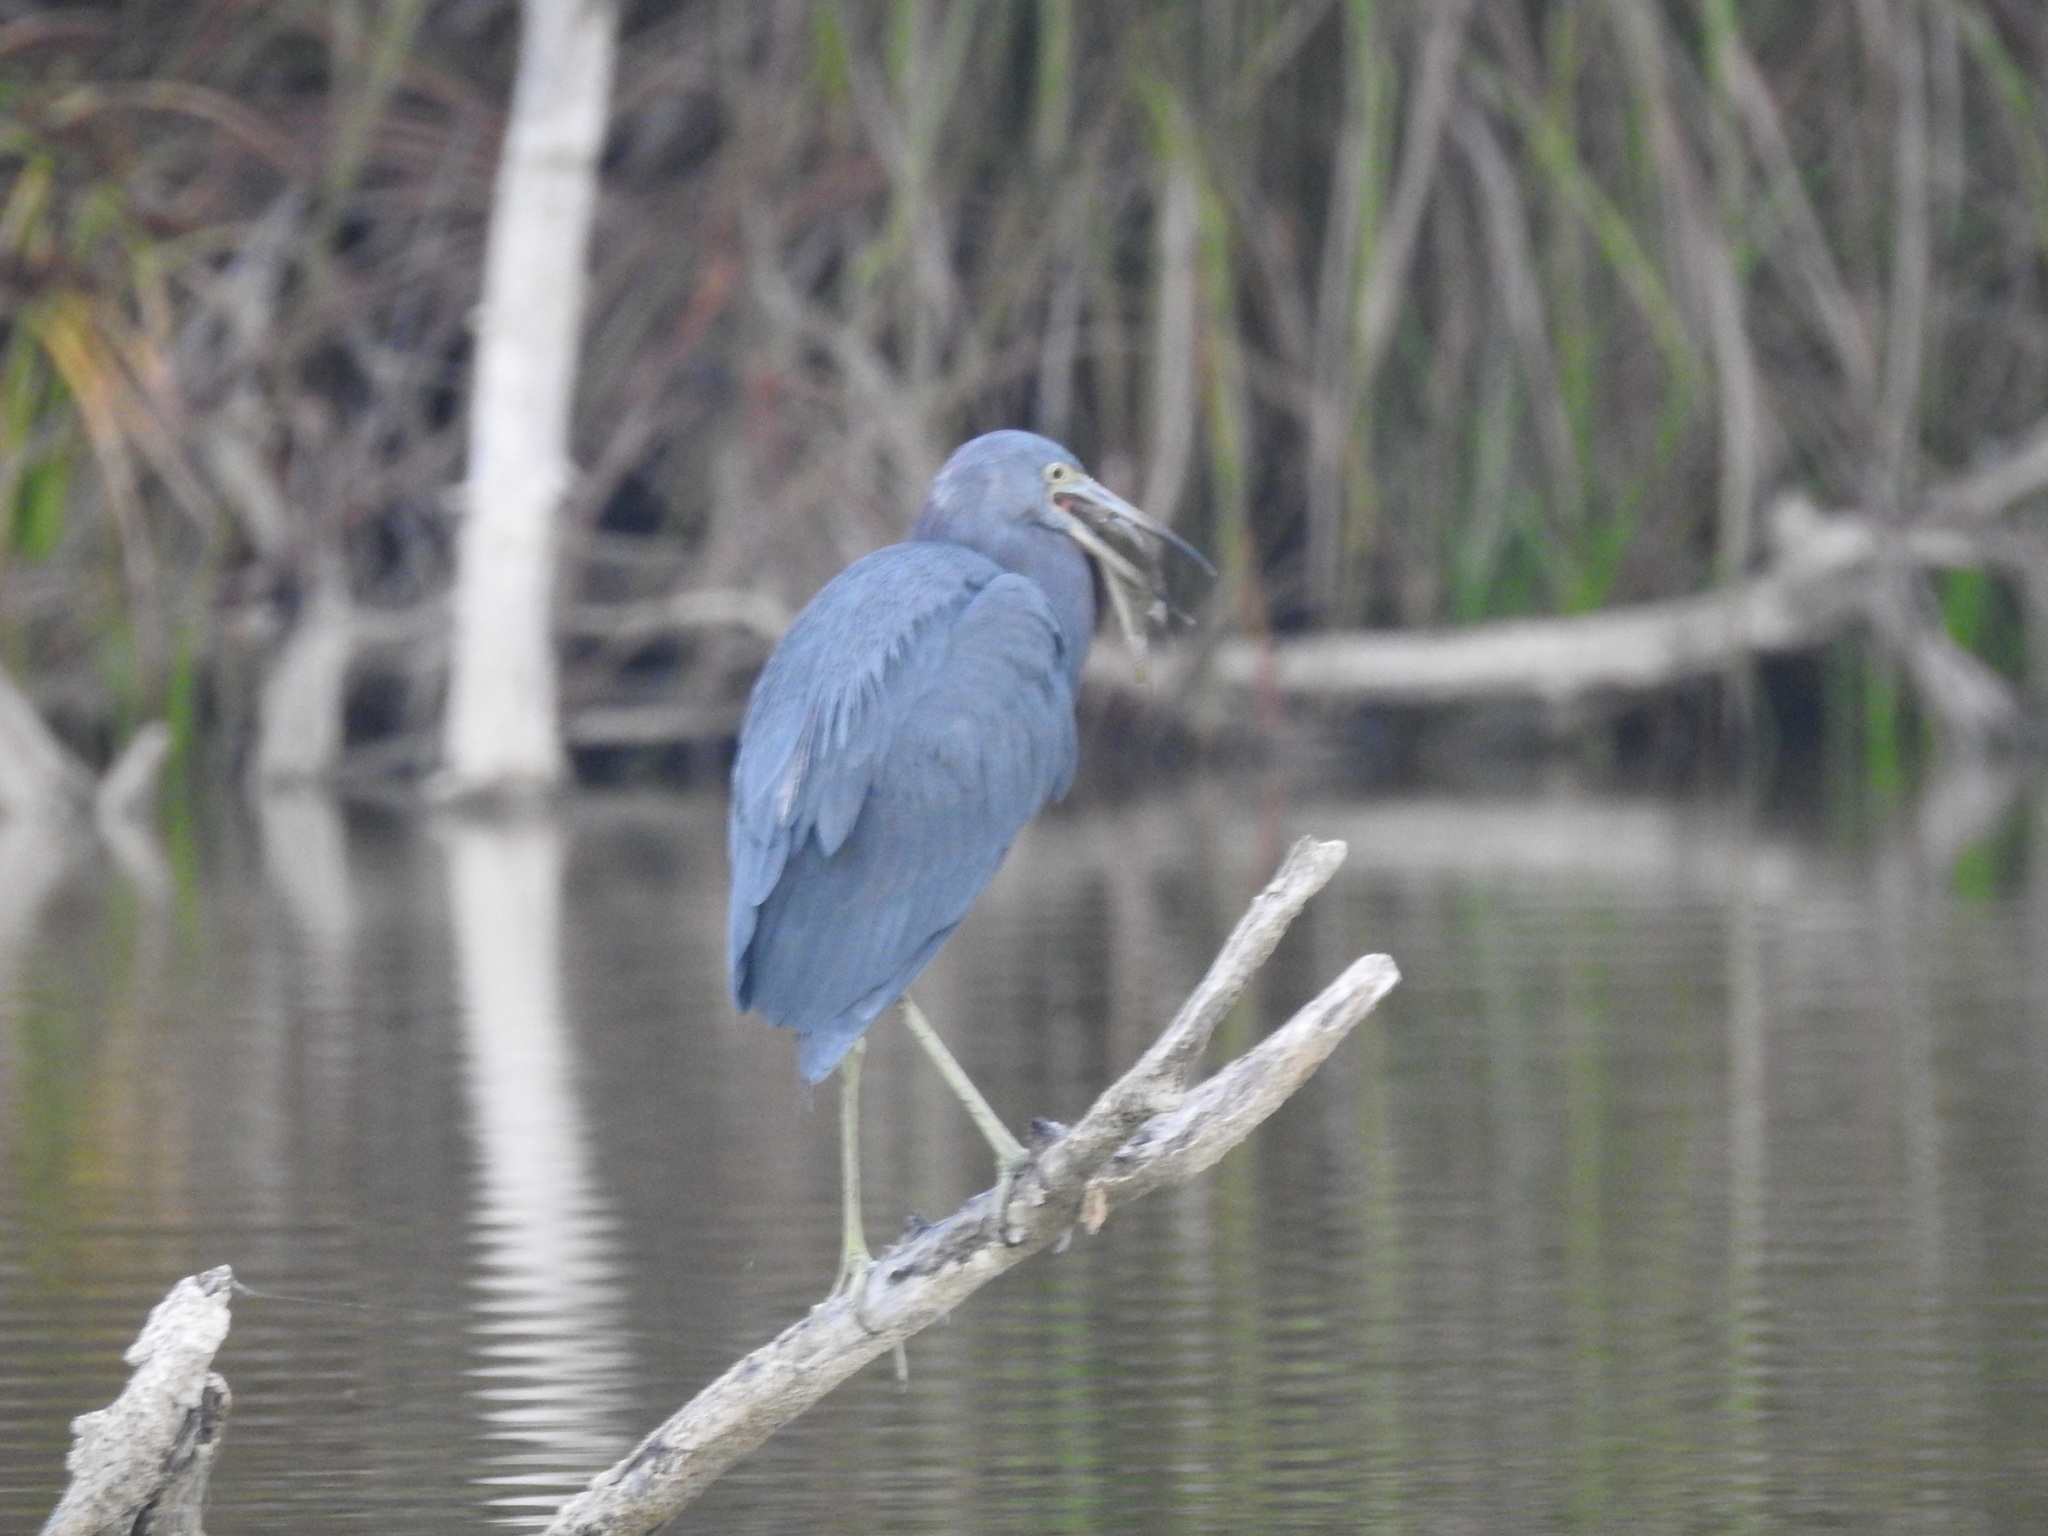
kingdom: Animalia
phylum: Chordata
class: Aves
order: Pelecaniformes
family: Ardeidae
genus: Egretta
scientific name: Egretta caerulea
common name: Little blue heron
